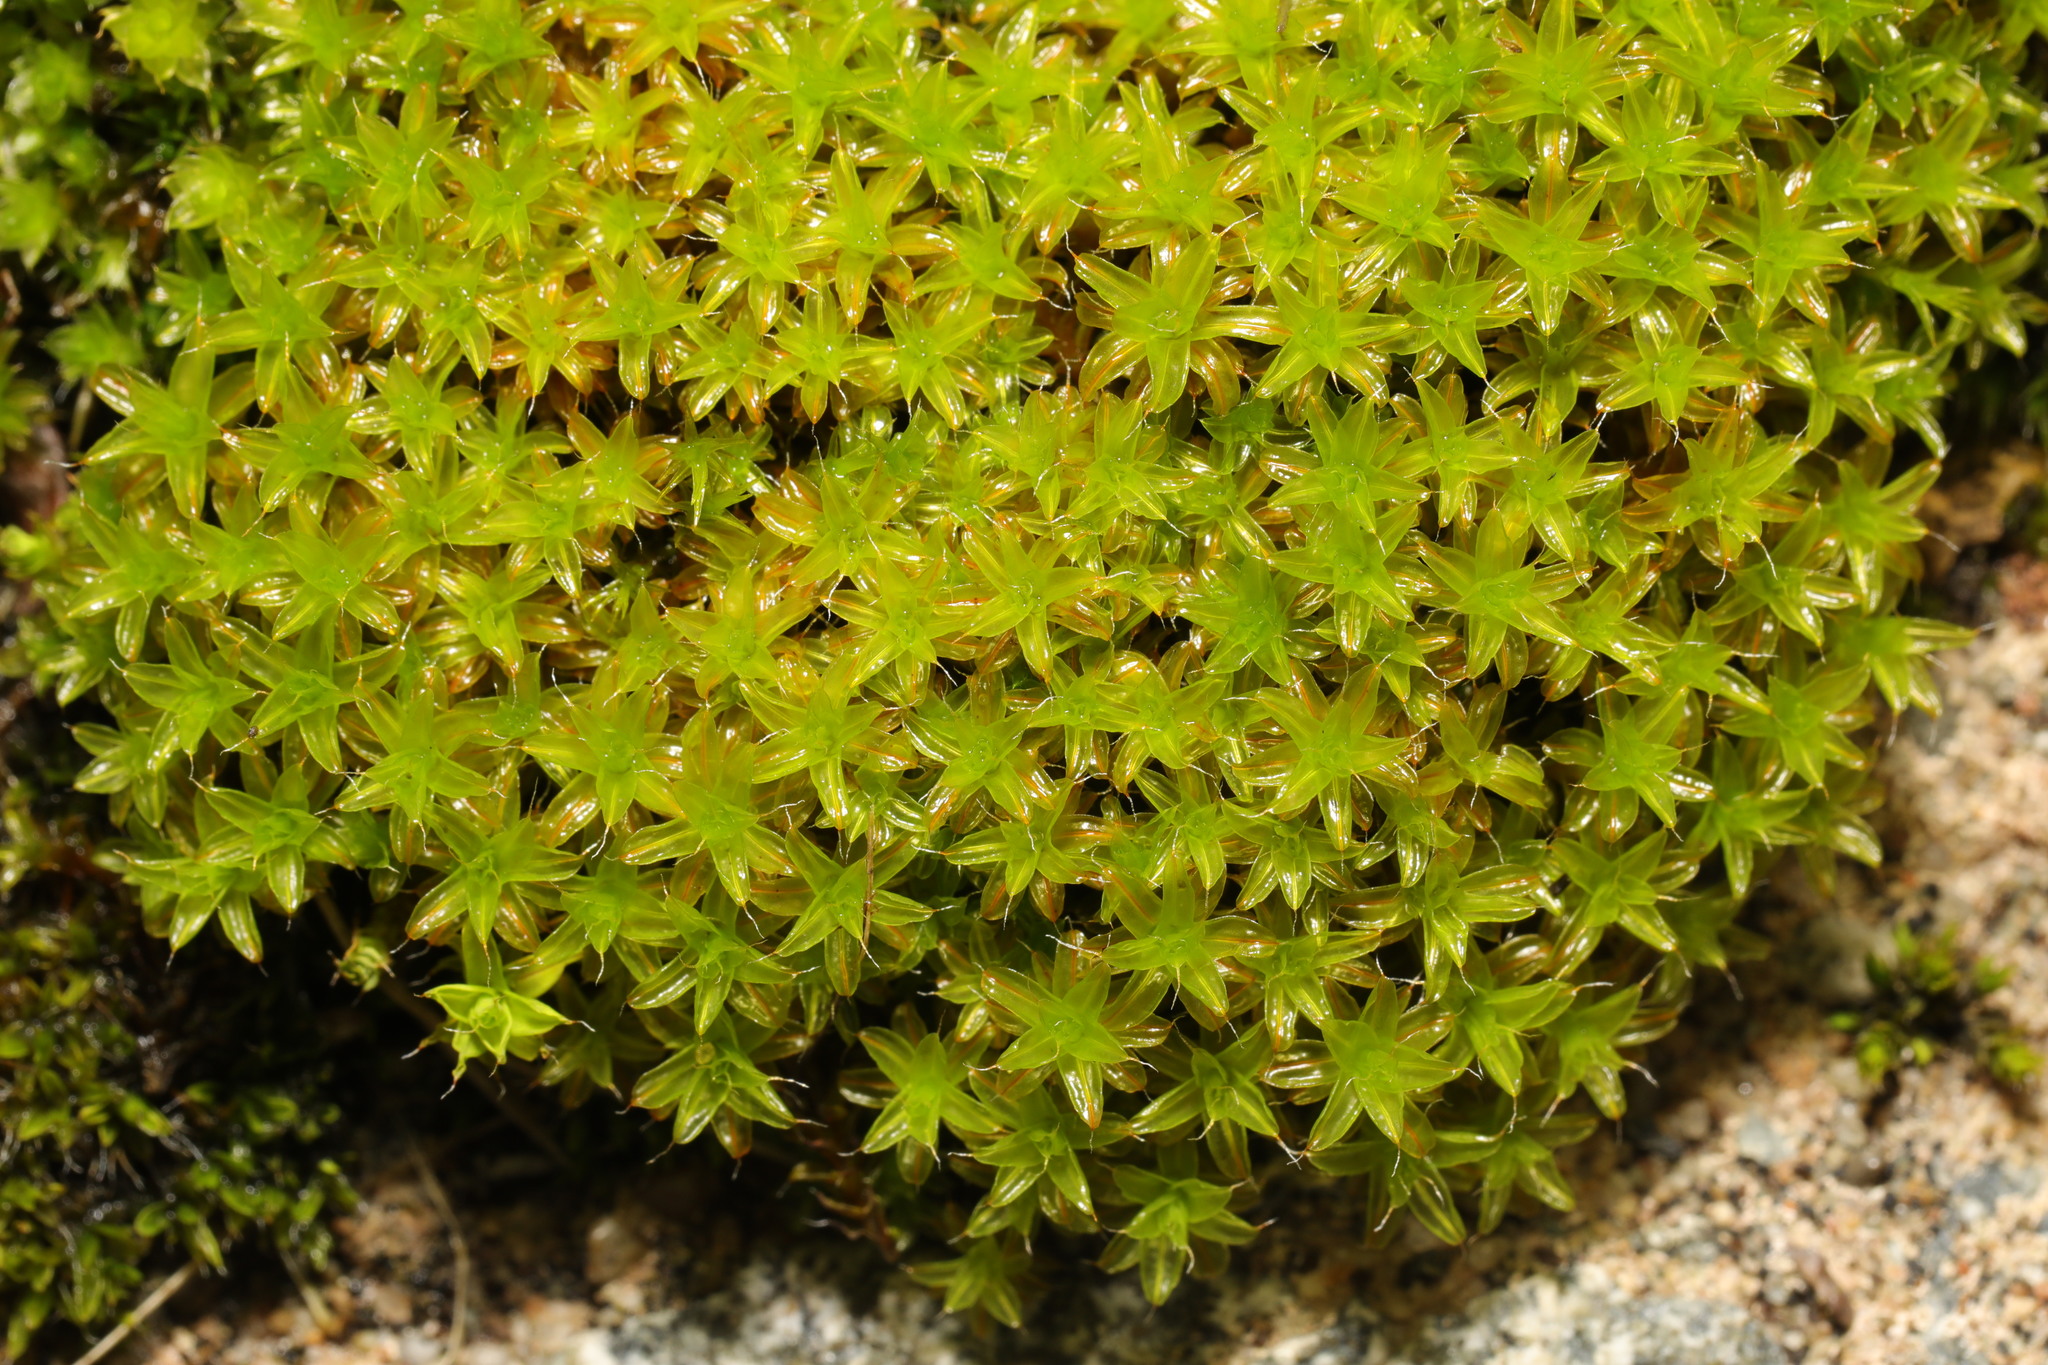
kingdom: Plantae
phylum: Bryophyta
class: Bryopsida
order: Pottiales
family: Pottiaceae
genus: Syntrichia
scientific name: Syntrichia ruralis
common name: Sidewalk screw moss
